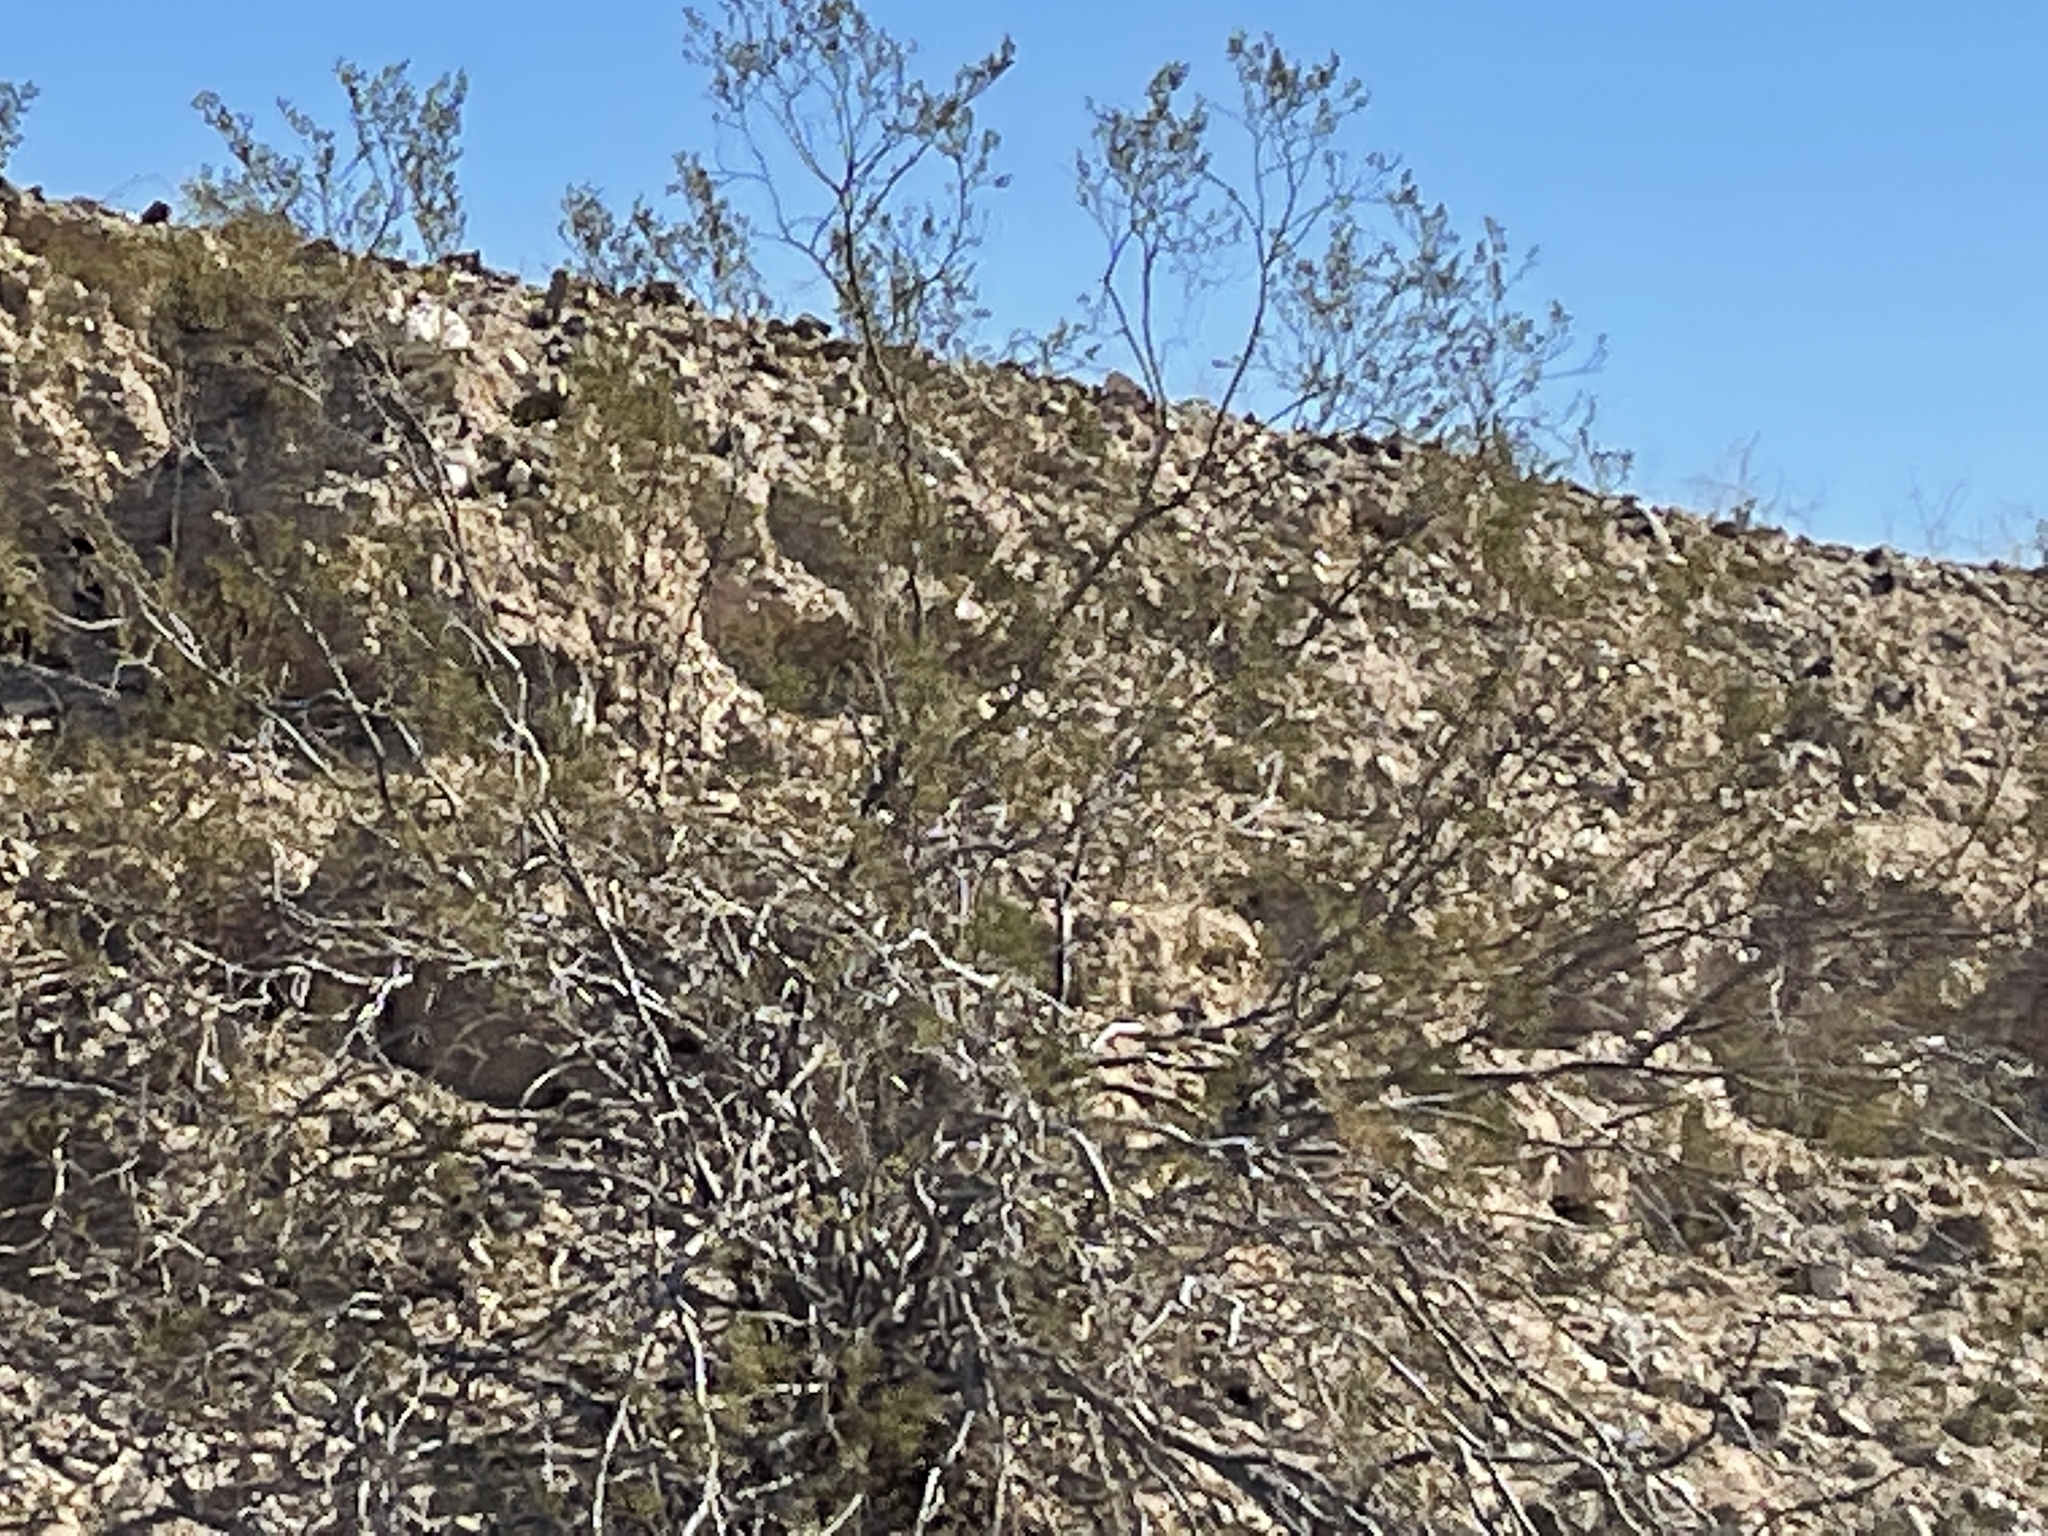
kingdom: Plantae
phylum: Tracheophyta
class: Magnoliopsida
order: Zygophyllales
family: Zygophyllaceae
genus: Larrea
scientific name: Larrea tridentata
